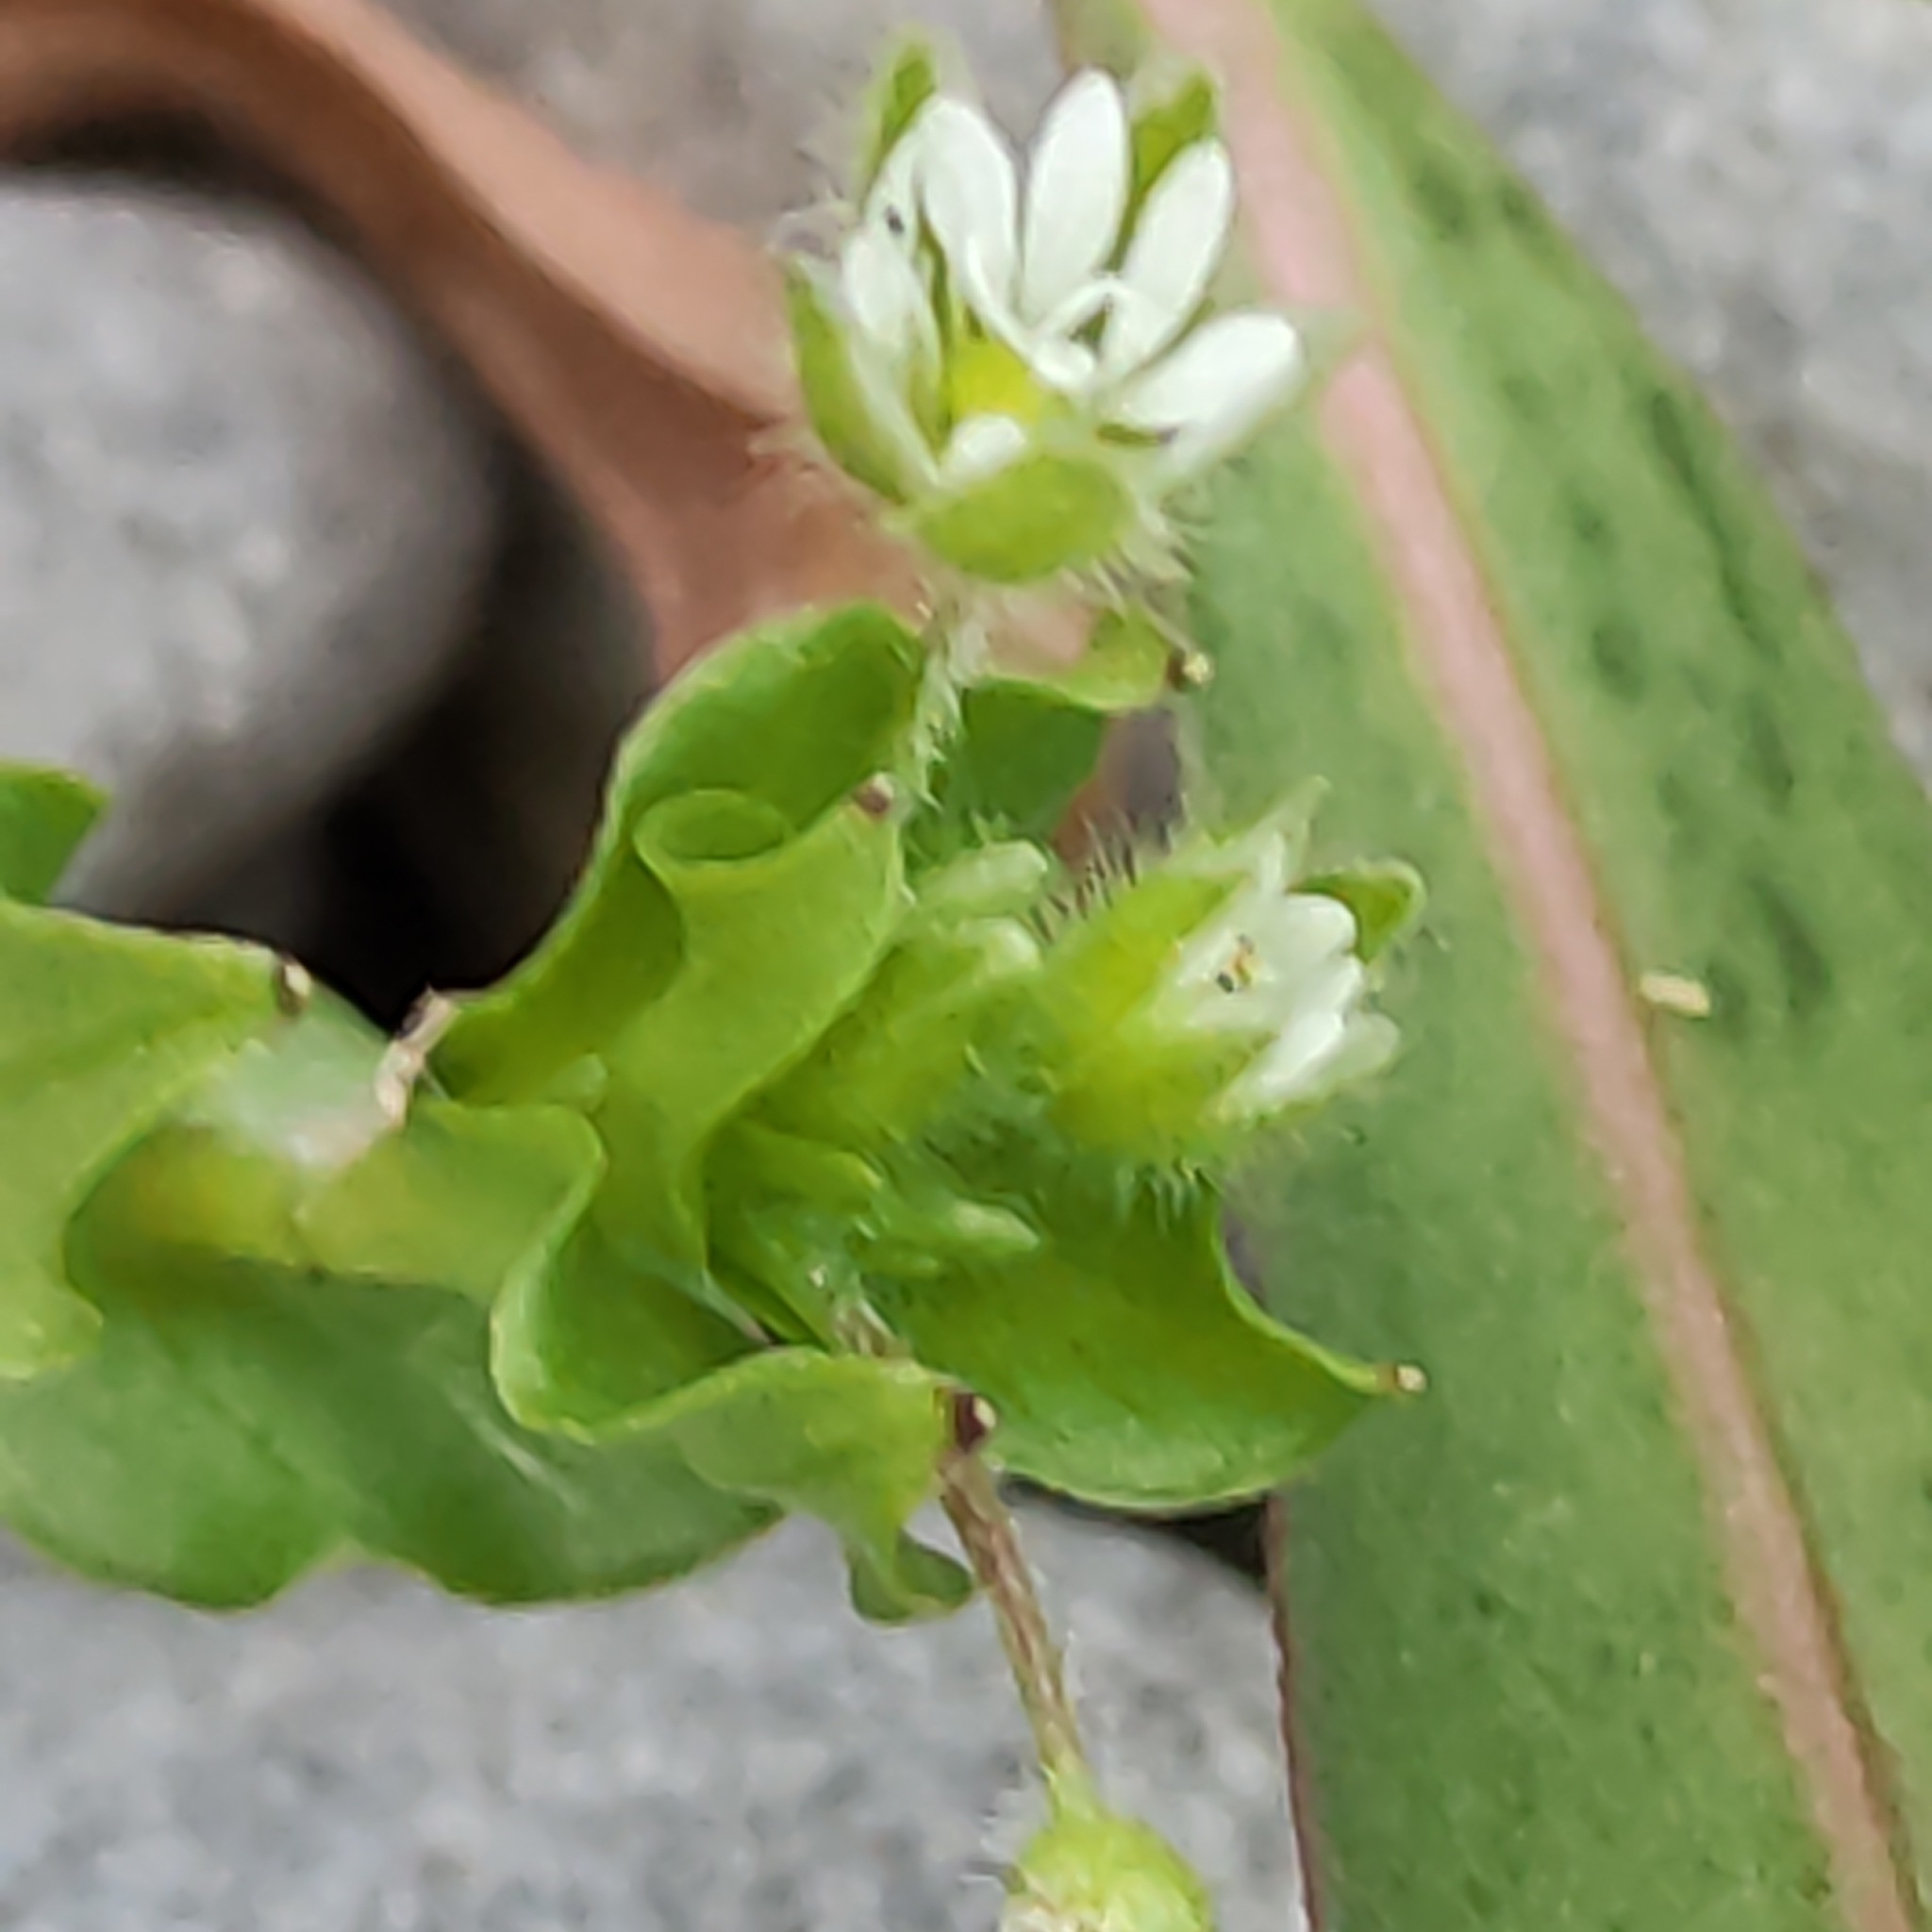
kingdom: Plantae
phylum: Tracheophyta
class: Magnoliopsida
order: Caryophyllales
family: Caryophyllaceae
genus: Stellaria
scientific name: Stellaria media
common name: Common chickweed
